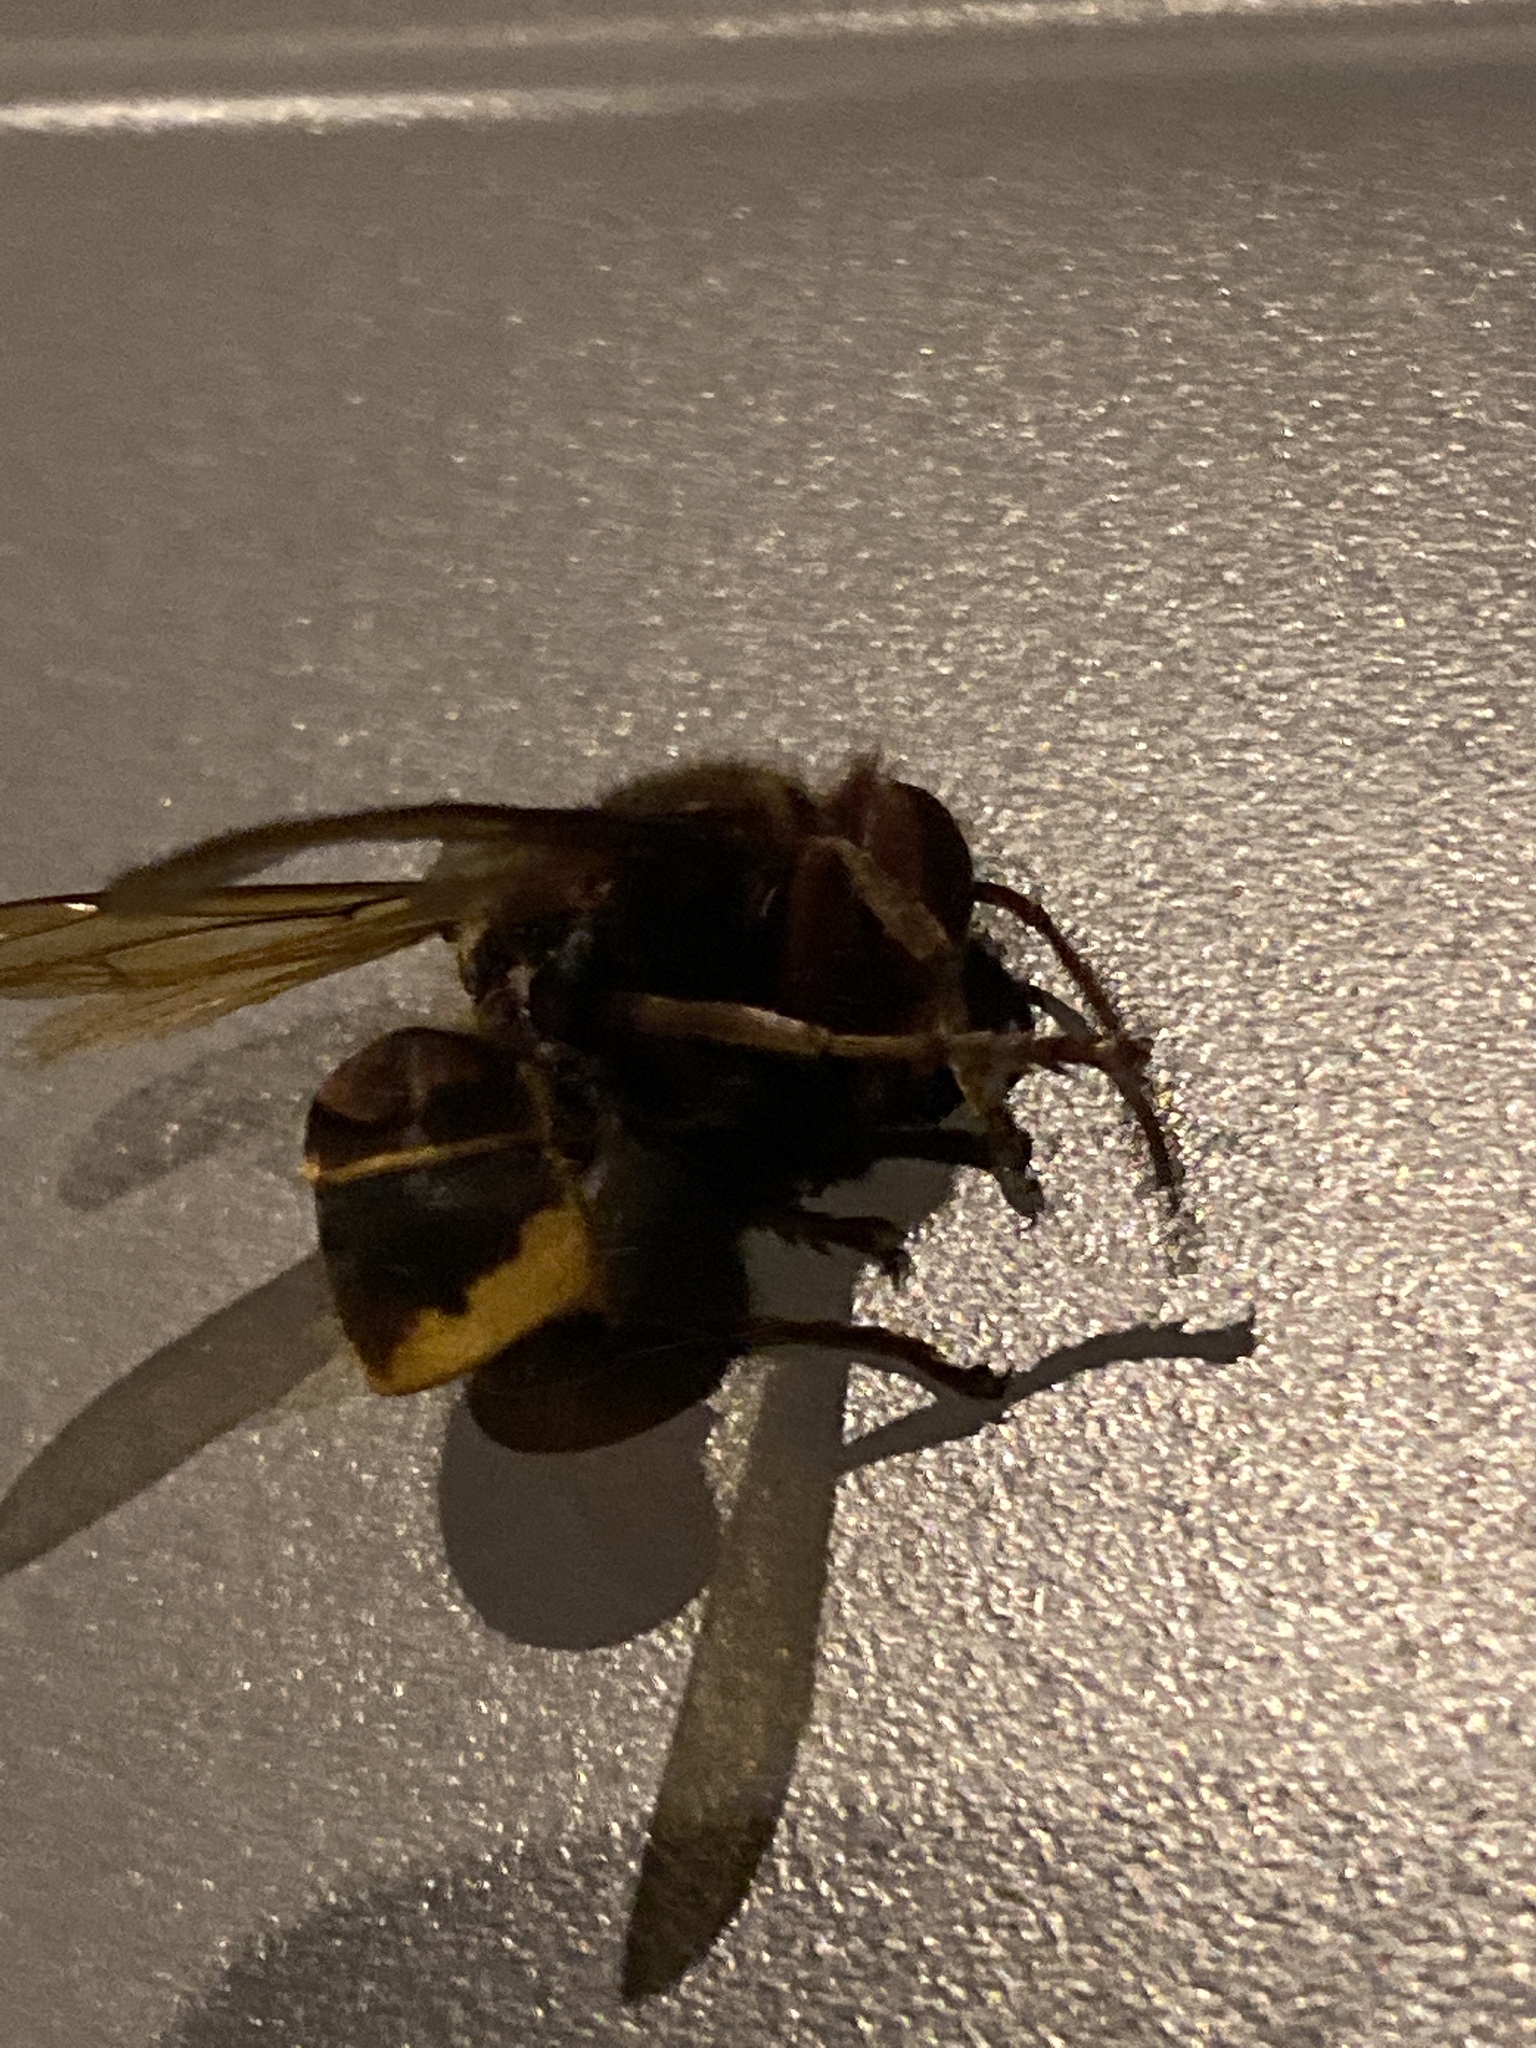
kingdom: Animalia
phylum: Arthropoda
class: Insecta
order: Hymenoptera
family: Vespidae
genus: Vespa
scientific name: Vespa crabro
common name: Hornet
